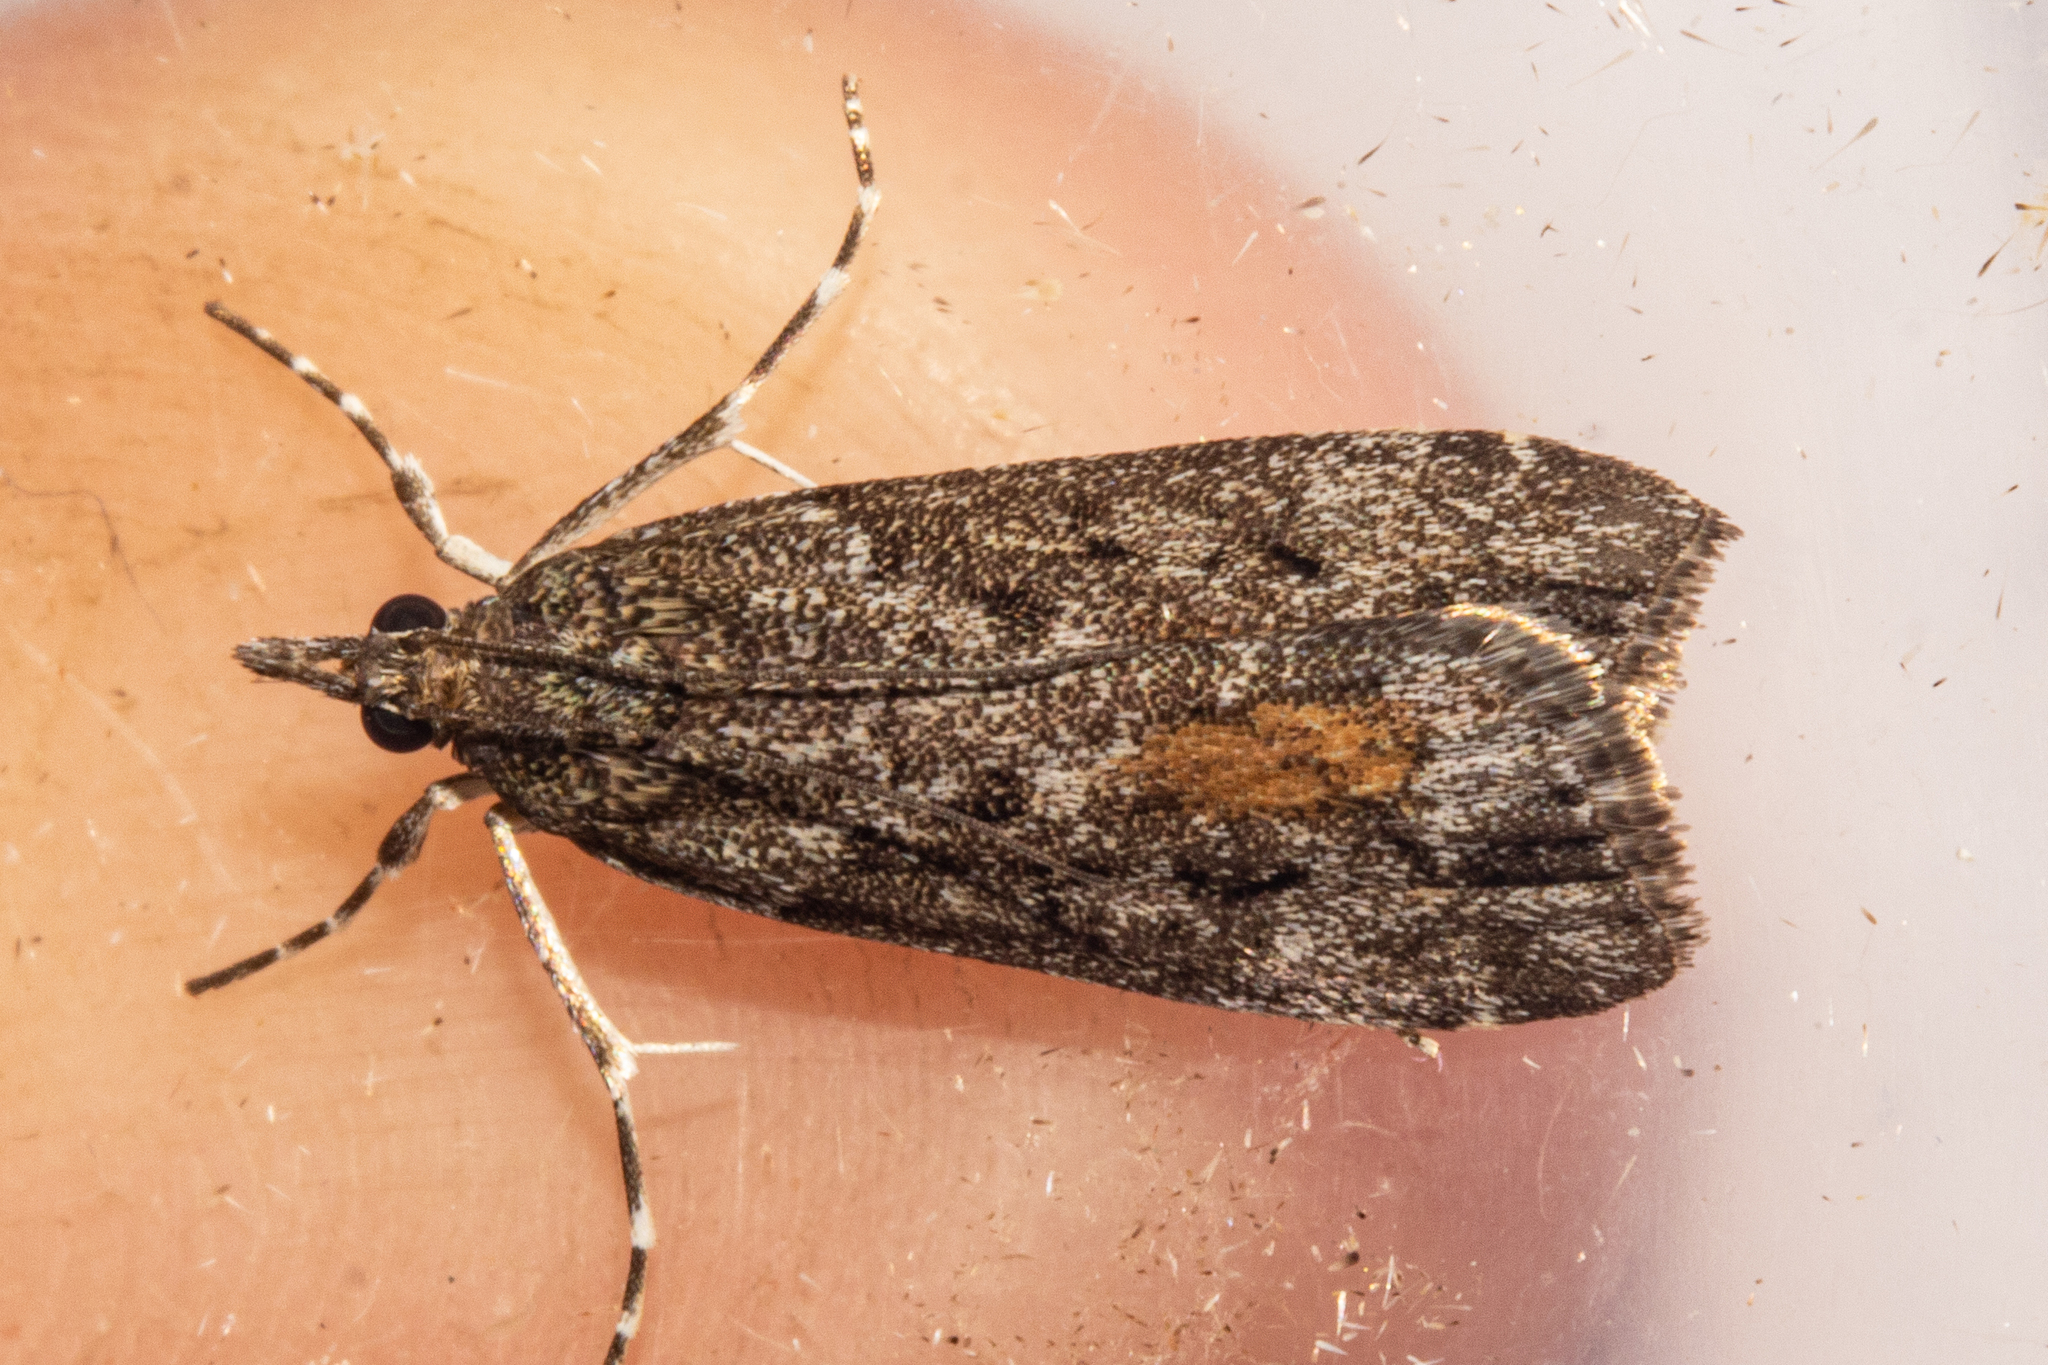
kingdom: Animalia
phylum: Arthropoda
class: Insecta
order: Lepidoptera
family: Crambidae
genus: Eudonia
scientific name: Eudonia submarginalis
